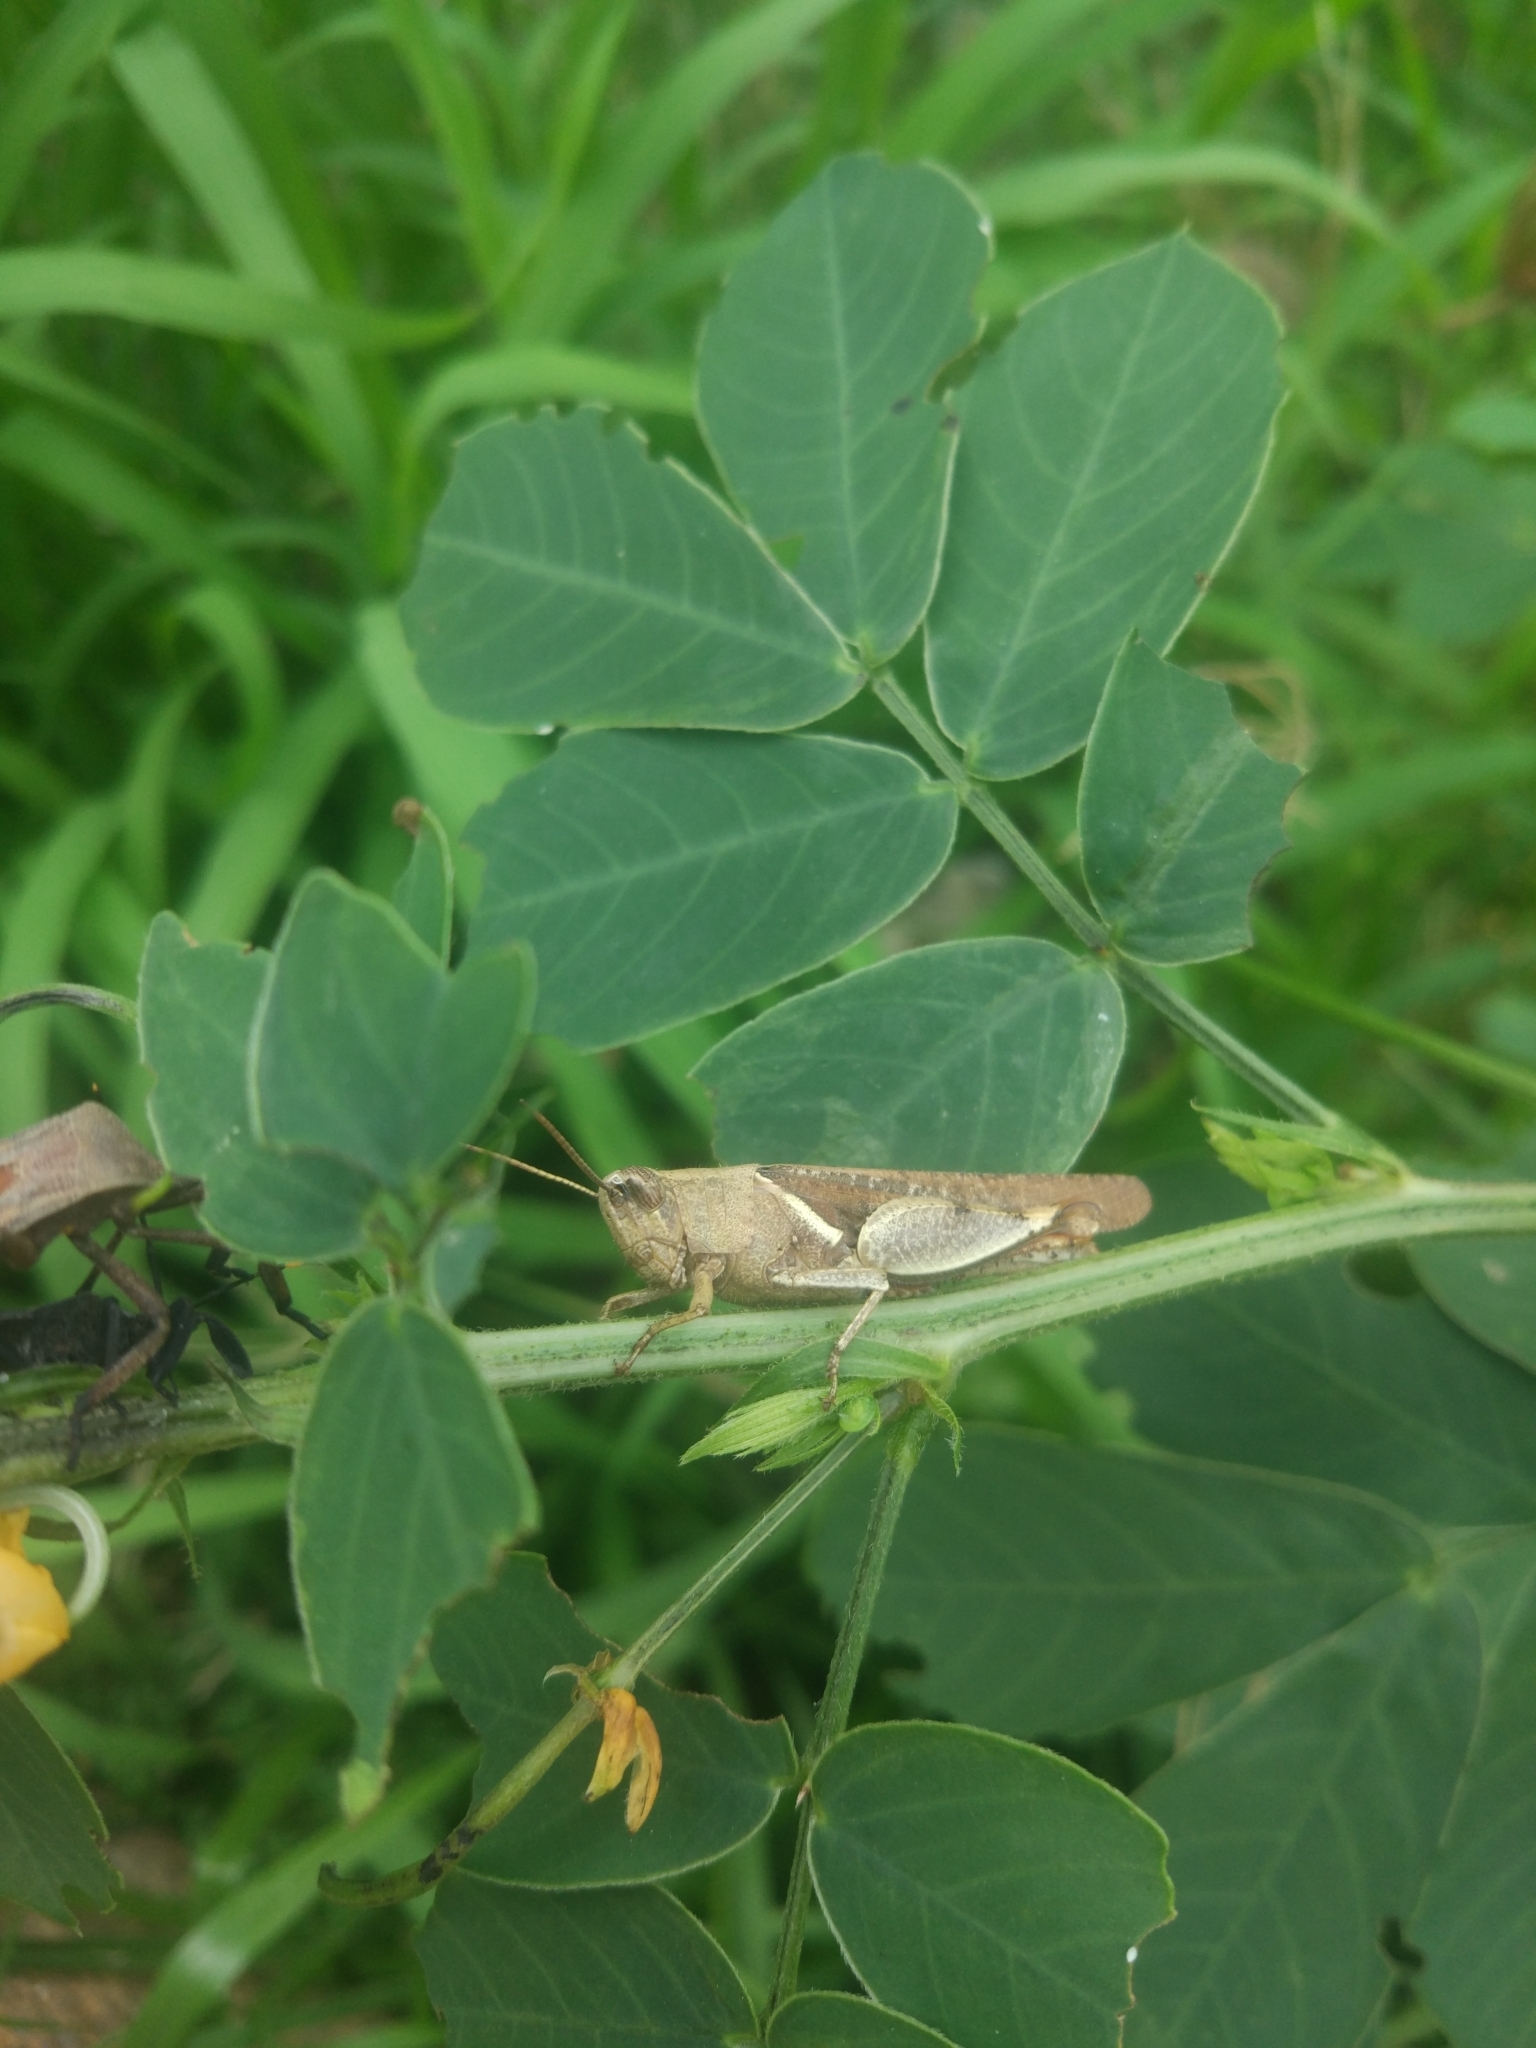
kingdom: Animalia
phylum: Arthropoda
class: Insecta
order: Orthoptera
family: Acrididae
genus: Diabolocatantops
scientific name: Diabolocatantops innotabilis
